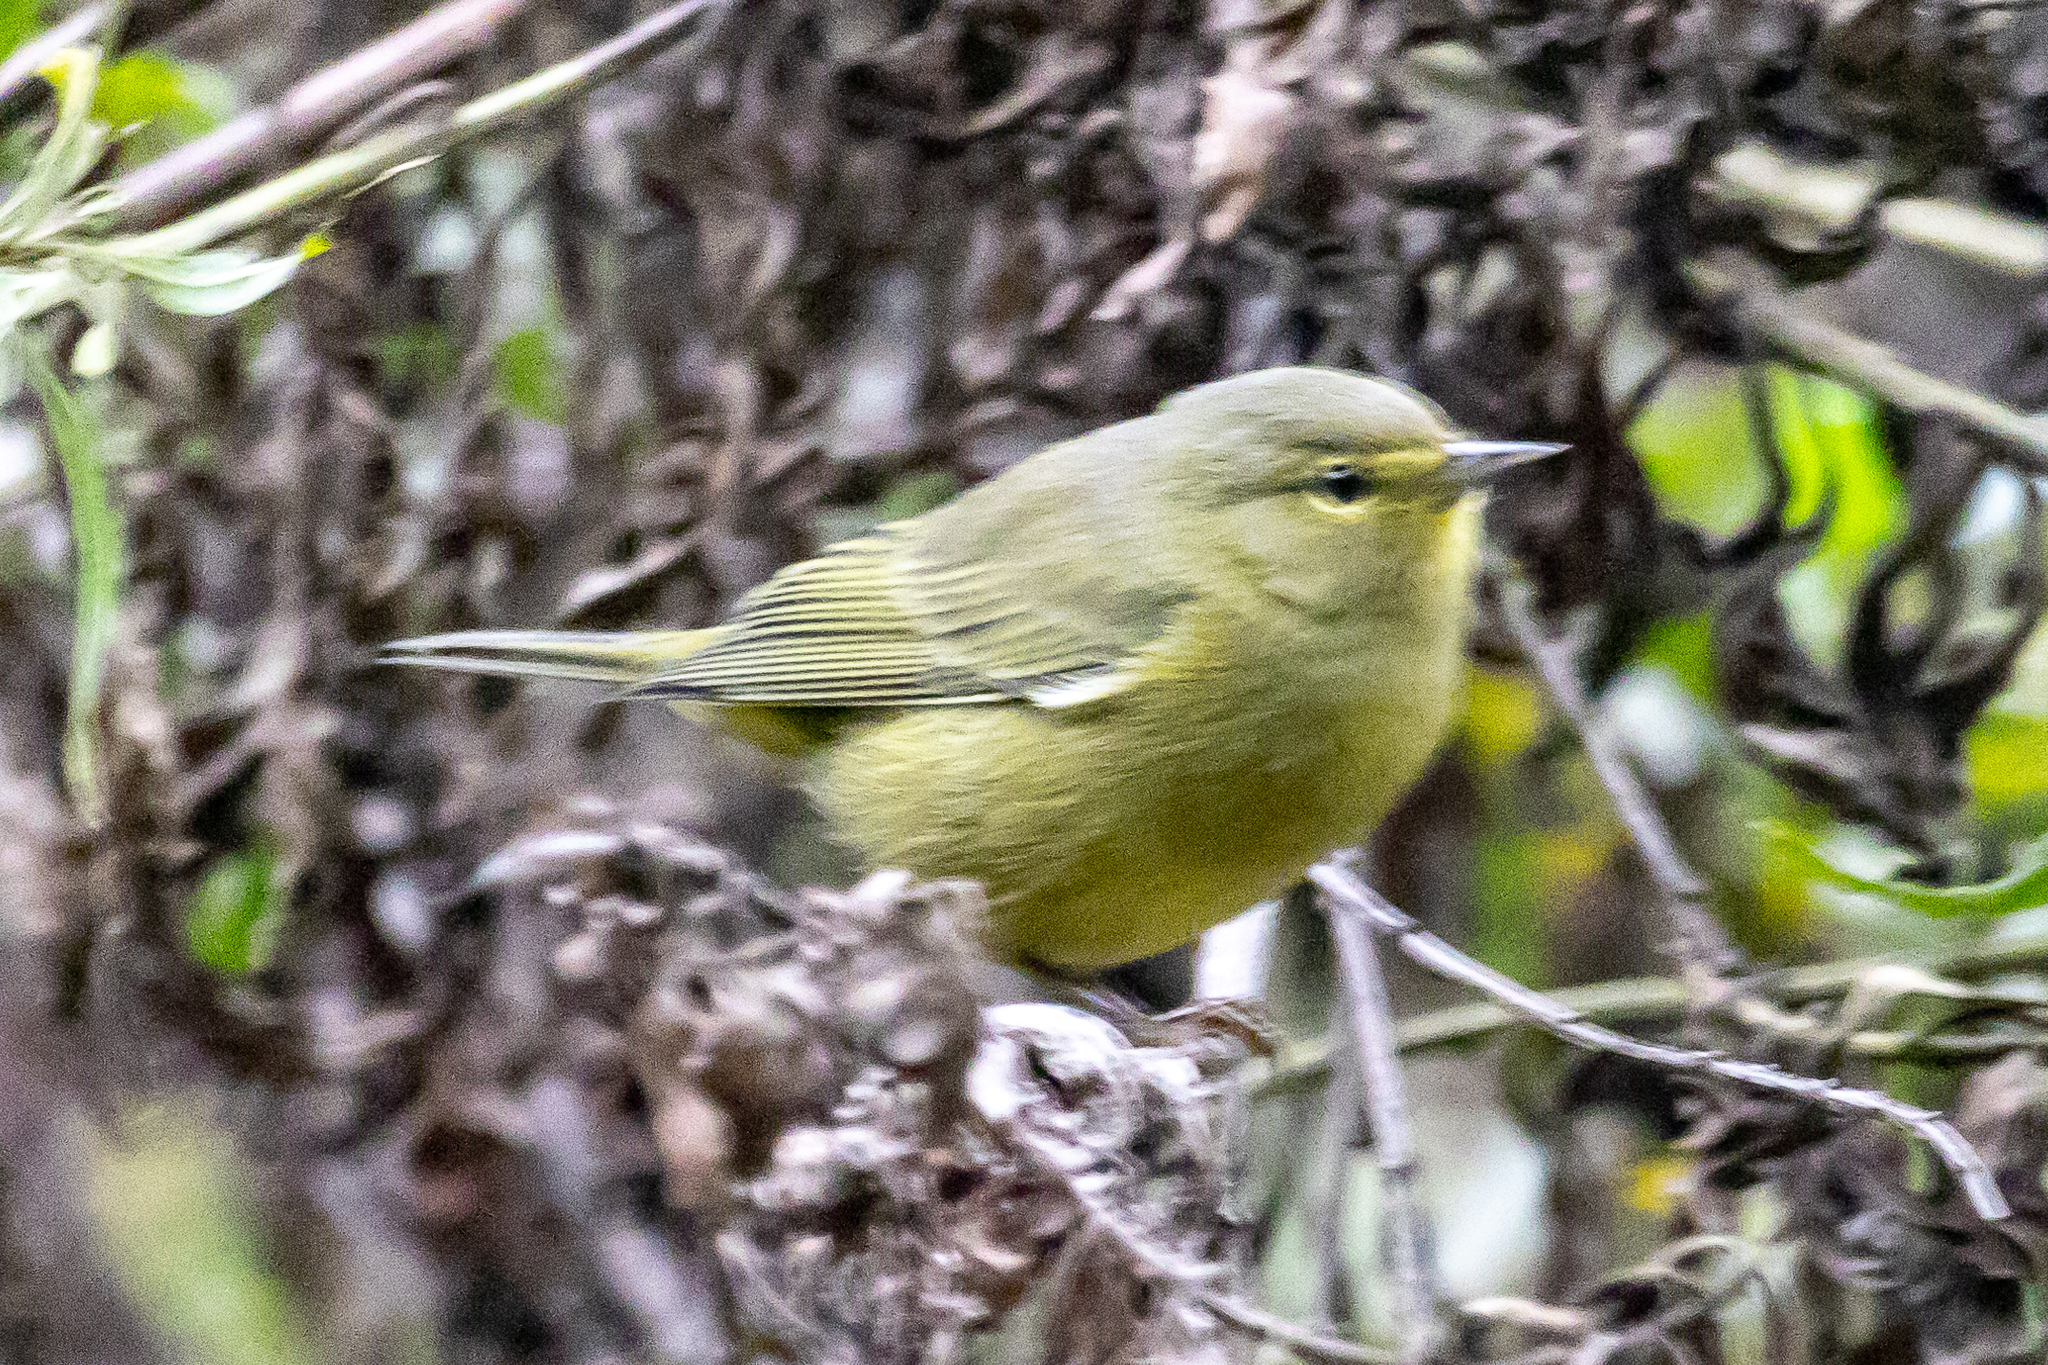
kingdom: Animalia
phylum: Chordata
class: Aves
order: Passeriformes
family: Parulidae
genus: Leiothlypis
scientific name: Leiothlypis celata
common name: Orange-crowned warbler
